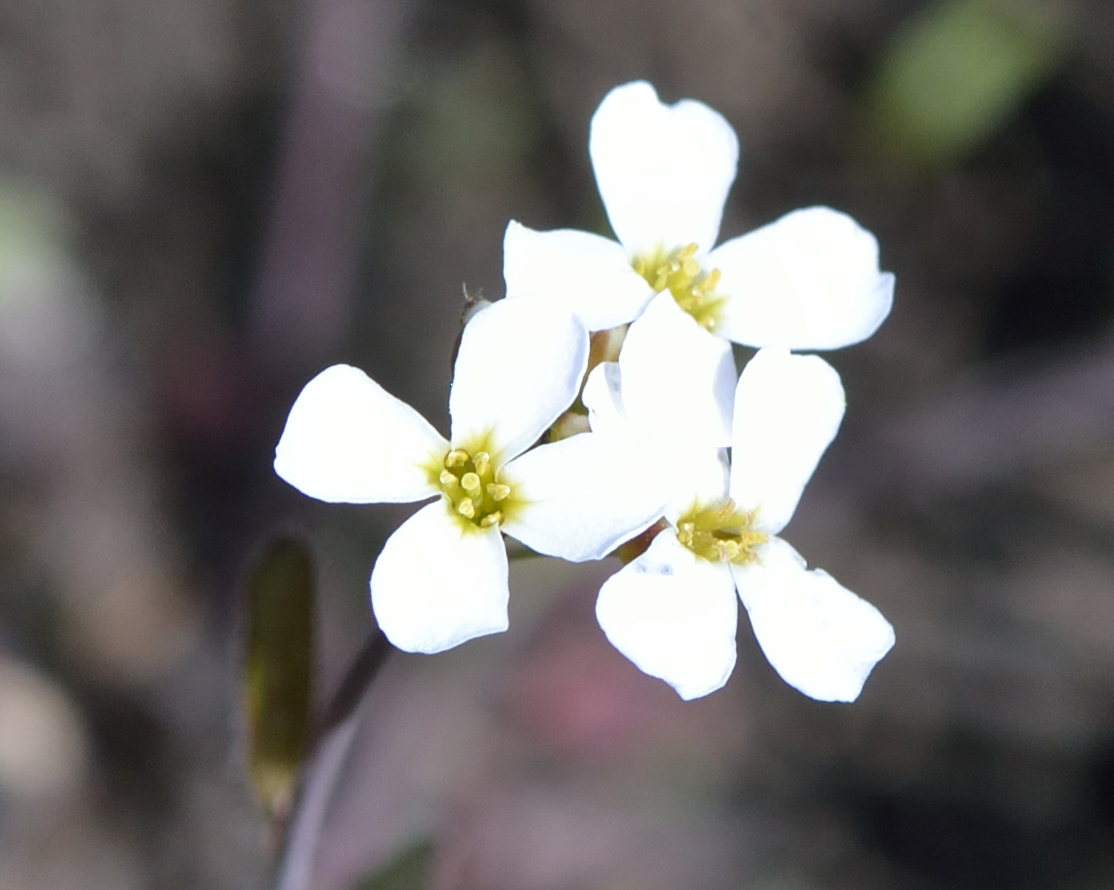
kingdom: Plantae
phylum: Tracheophyta
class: Magnoliopsida
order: Brassicales
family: Brassicaceae
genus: Arabidopsis
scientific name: Arabidopsis arenosa
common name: Sand rock-cress
